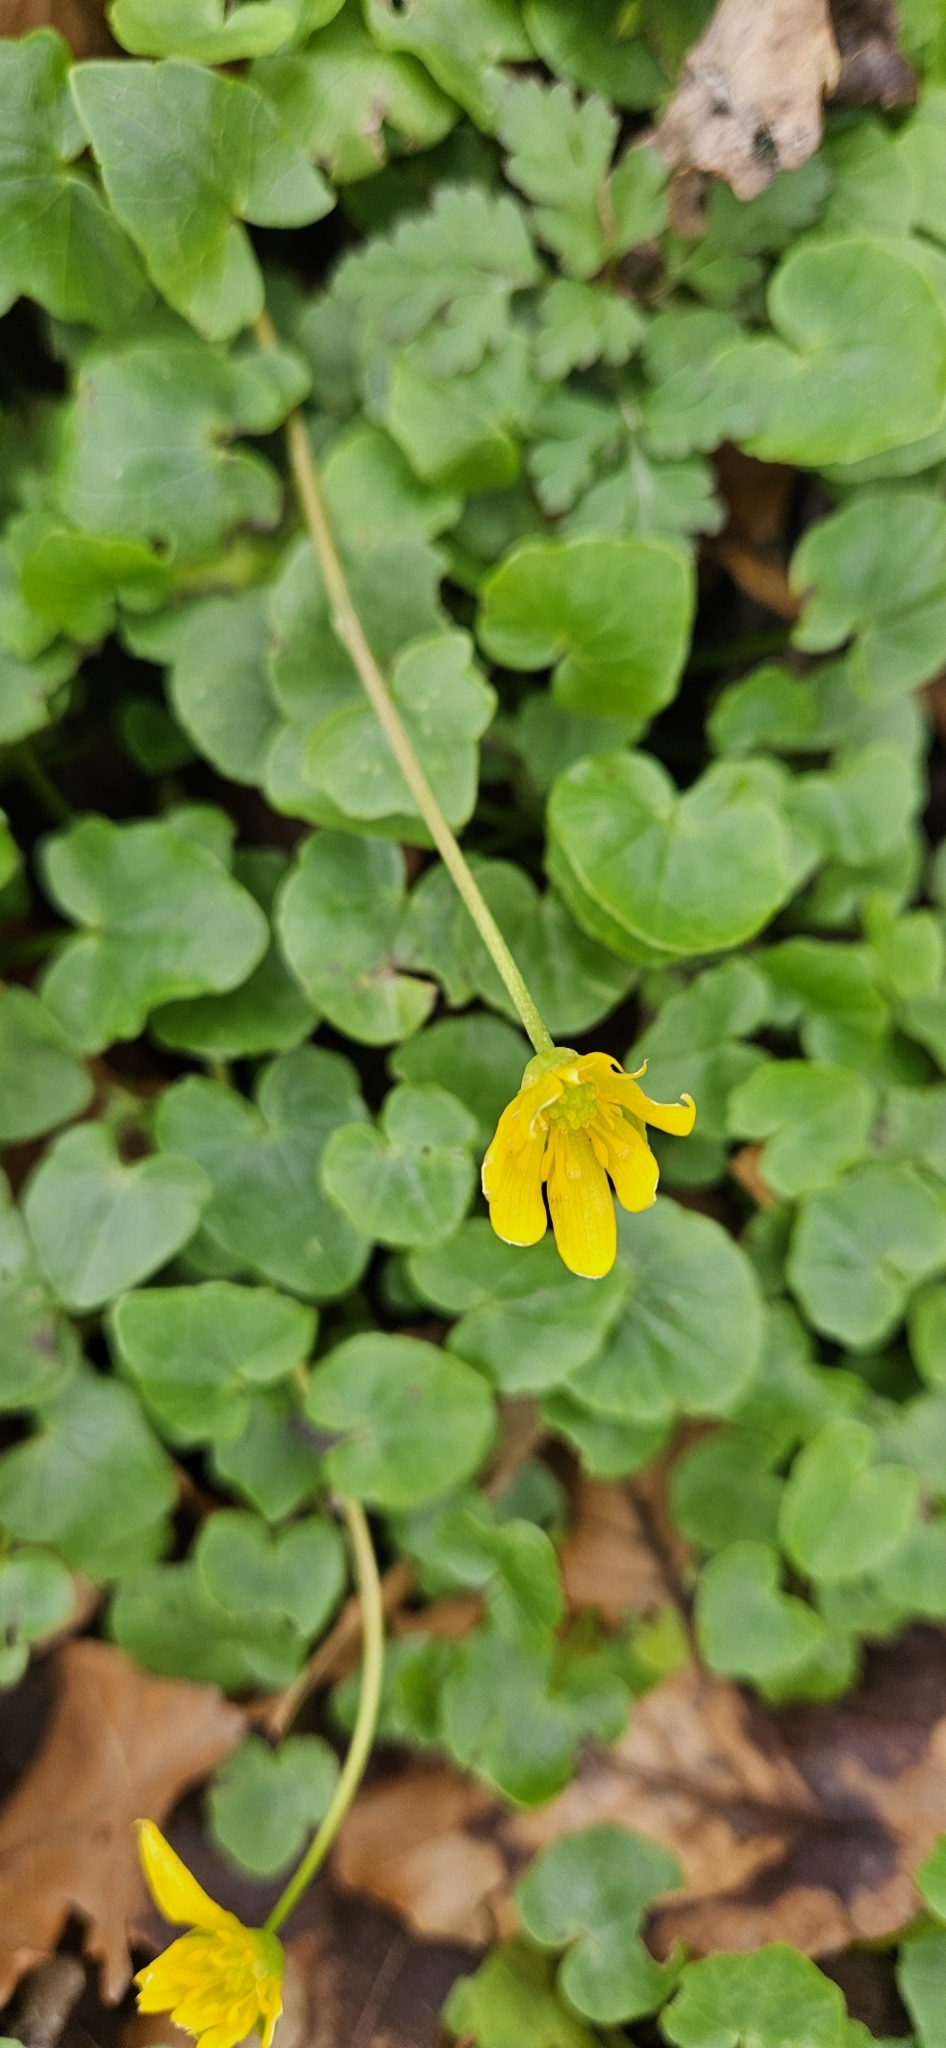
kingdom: Plantae
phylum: Tracheophyta
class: Magnoliopsida
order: Ranunculales
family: Ranunculaceae
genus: Ficaria
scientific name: Ficaria verna
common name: Lesser celandine
